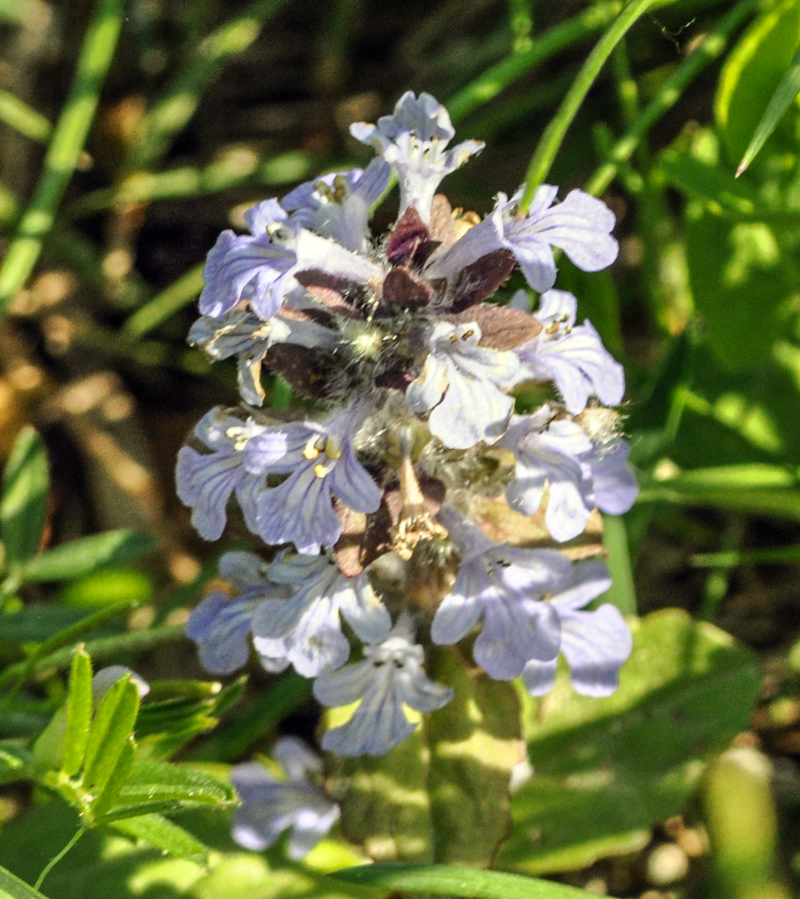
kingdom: Plantae
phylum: Tracheophyta
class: Magnoliopsida
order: Lamiales
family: Lamiaceae
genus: Ajuga
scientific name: Ajuga reptans
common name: Bugle
